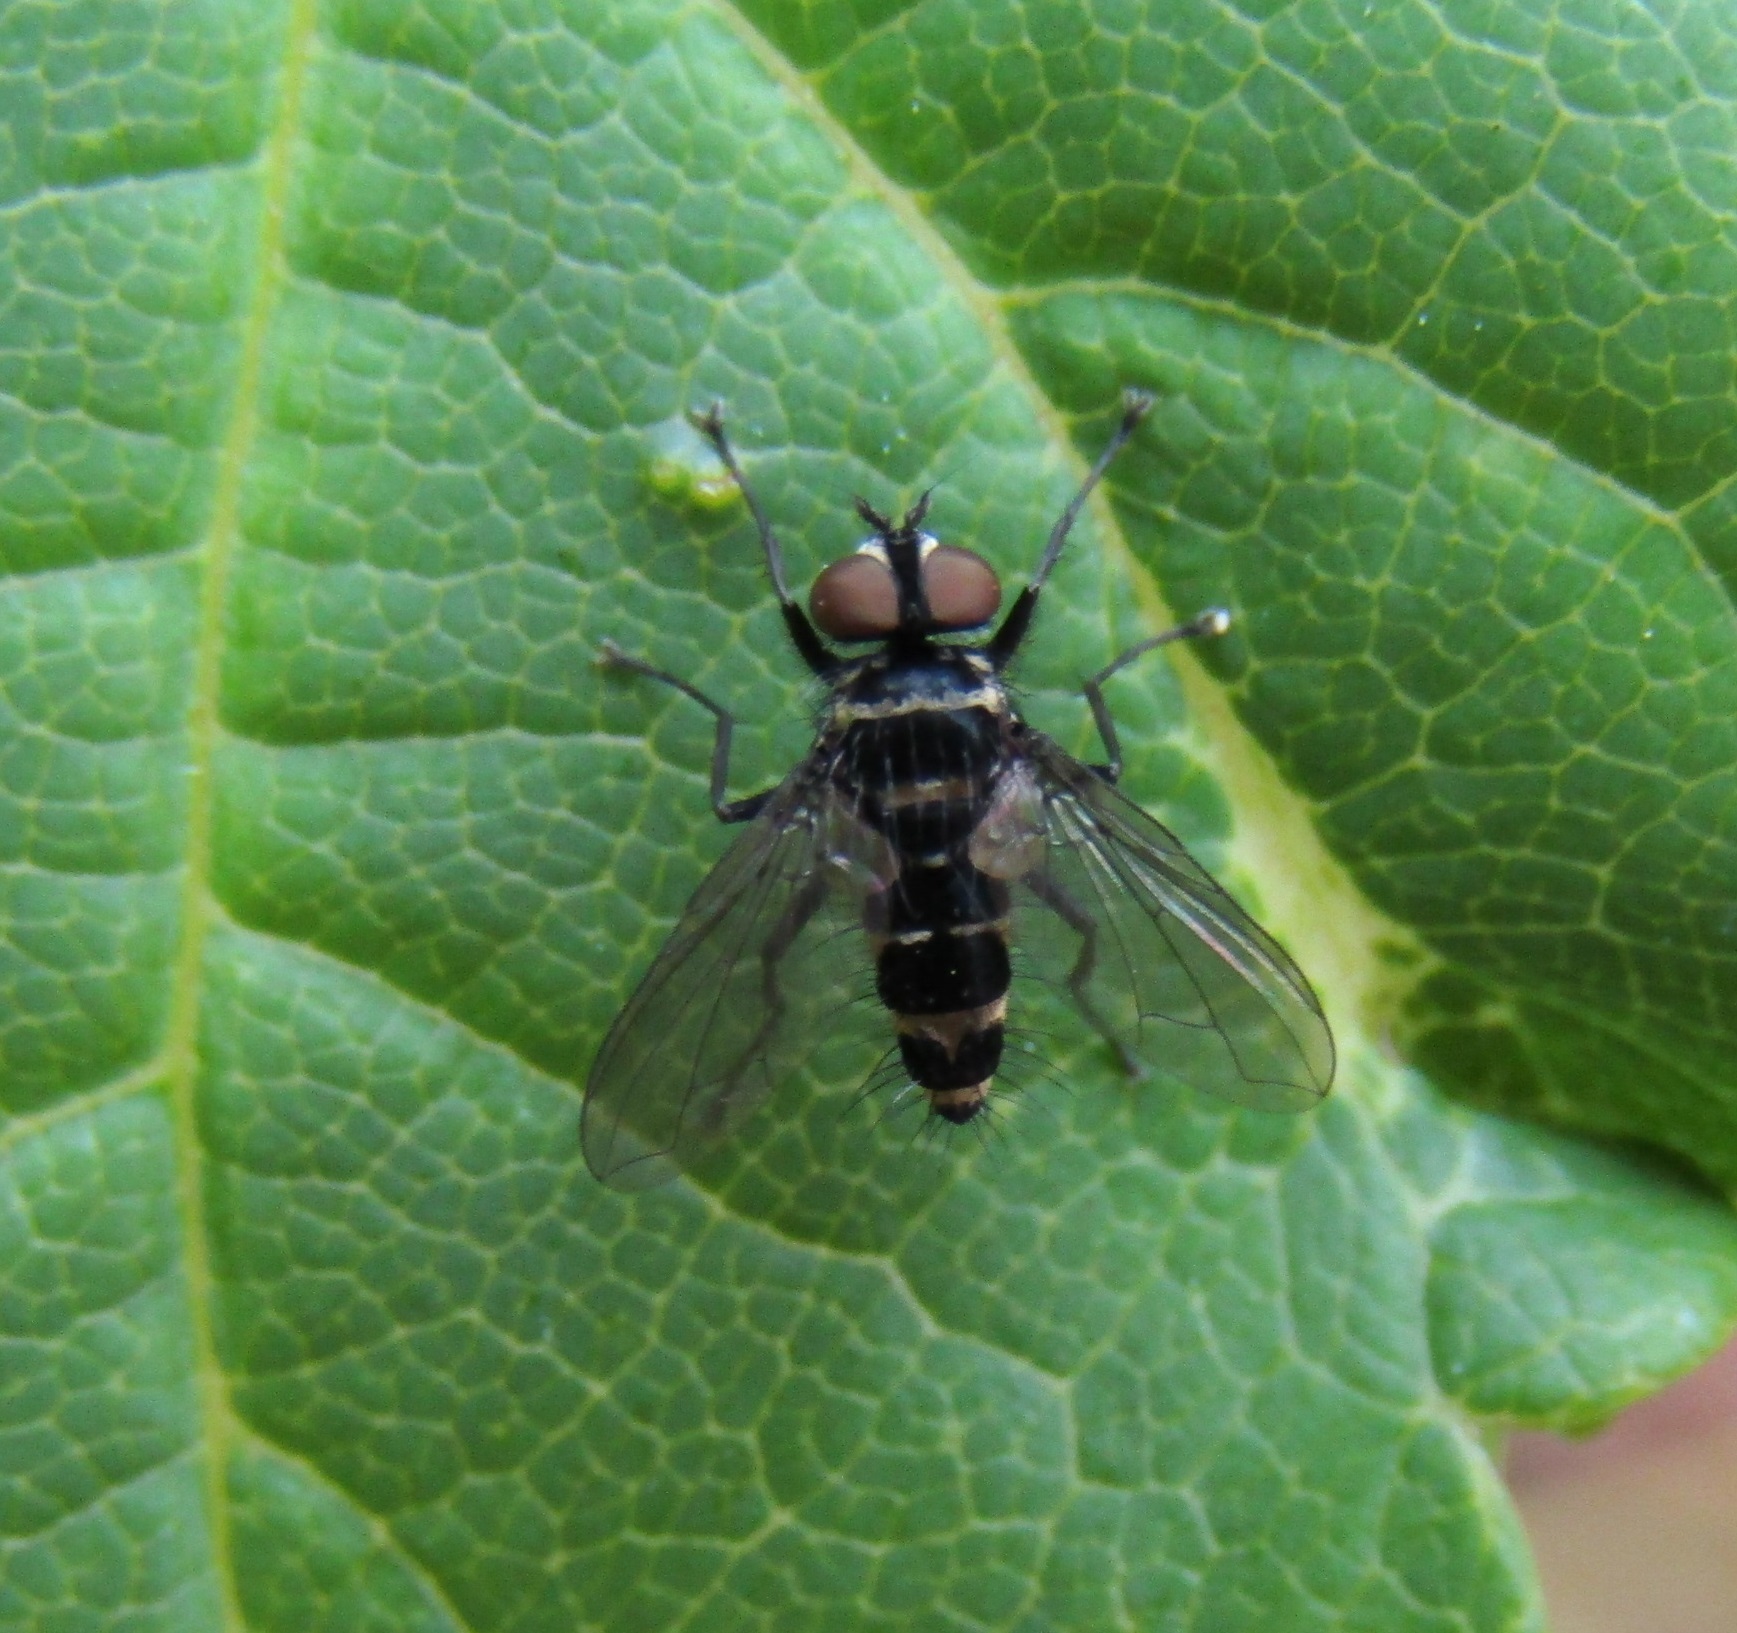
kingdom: Animalia
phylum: Arthropoda
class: Insecta
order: Diptera
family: Tachinidae
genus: Trigonospila
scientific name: Trigonospila brevifacies
